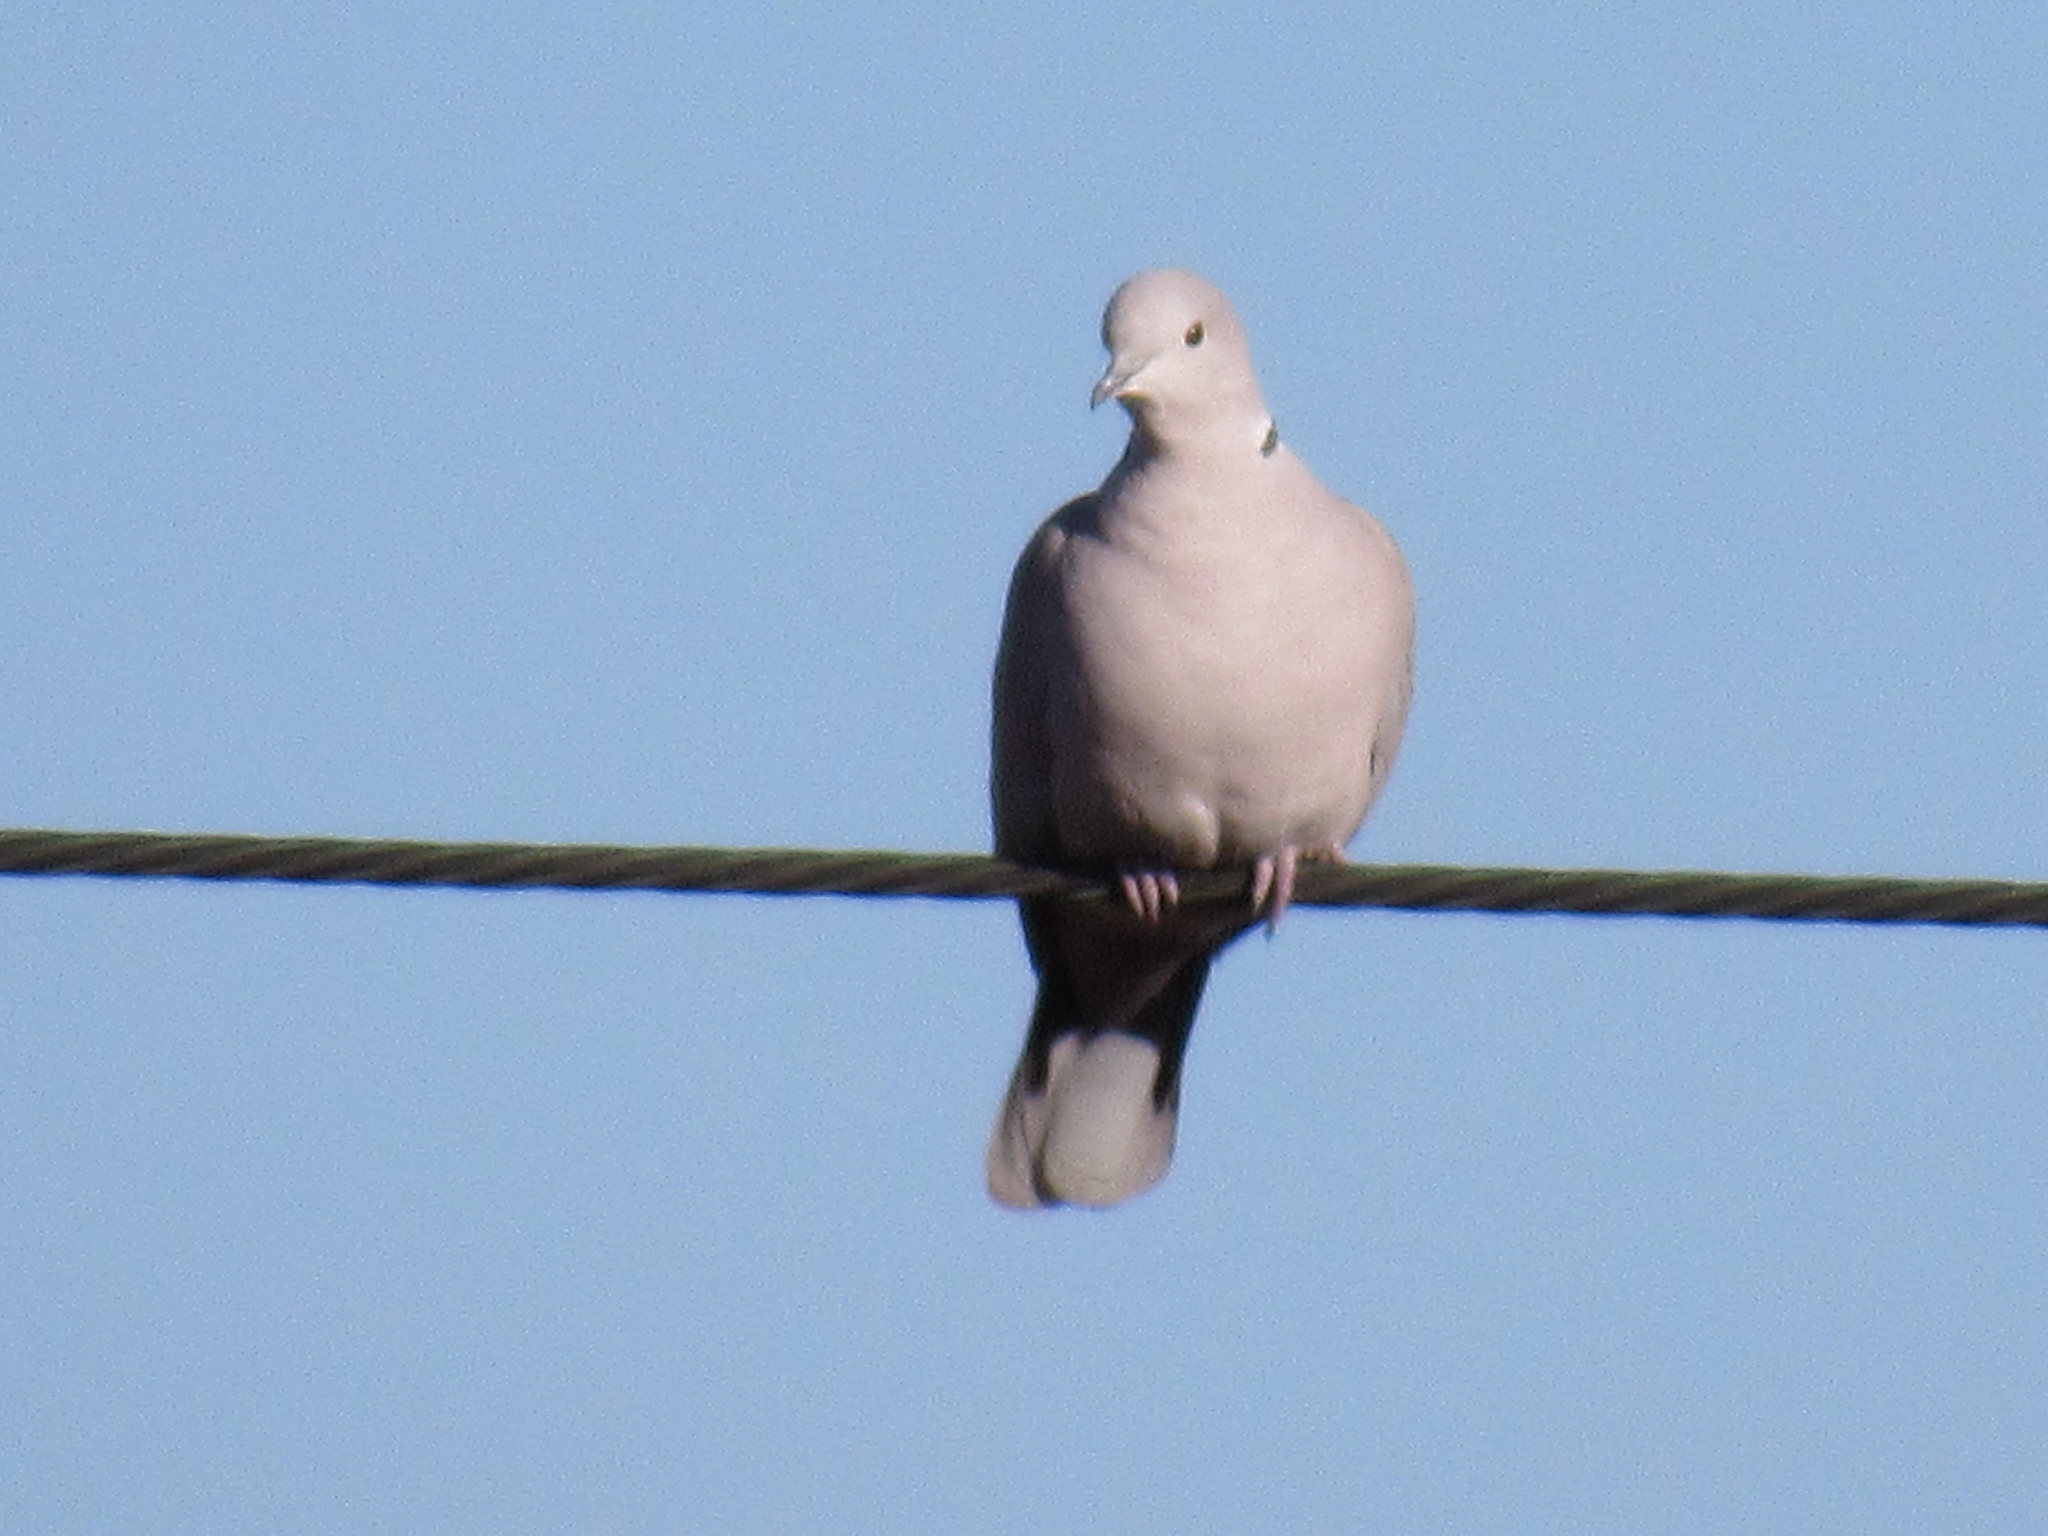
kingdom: Animalia
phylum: Chordata
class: Aves
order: Columbiformes
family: Columbidae
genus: Streptopelia
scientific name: Streptopelia decaocto
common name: Eurasian collared dove
